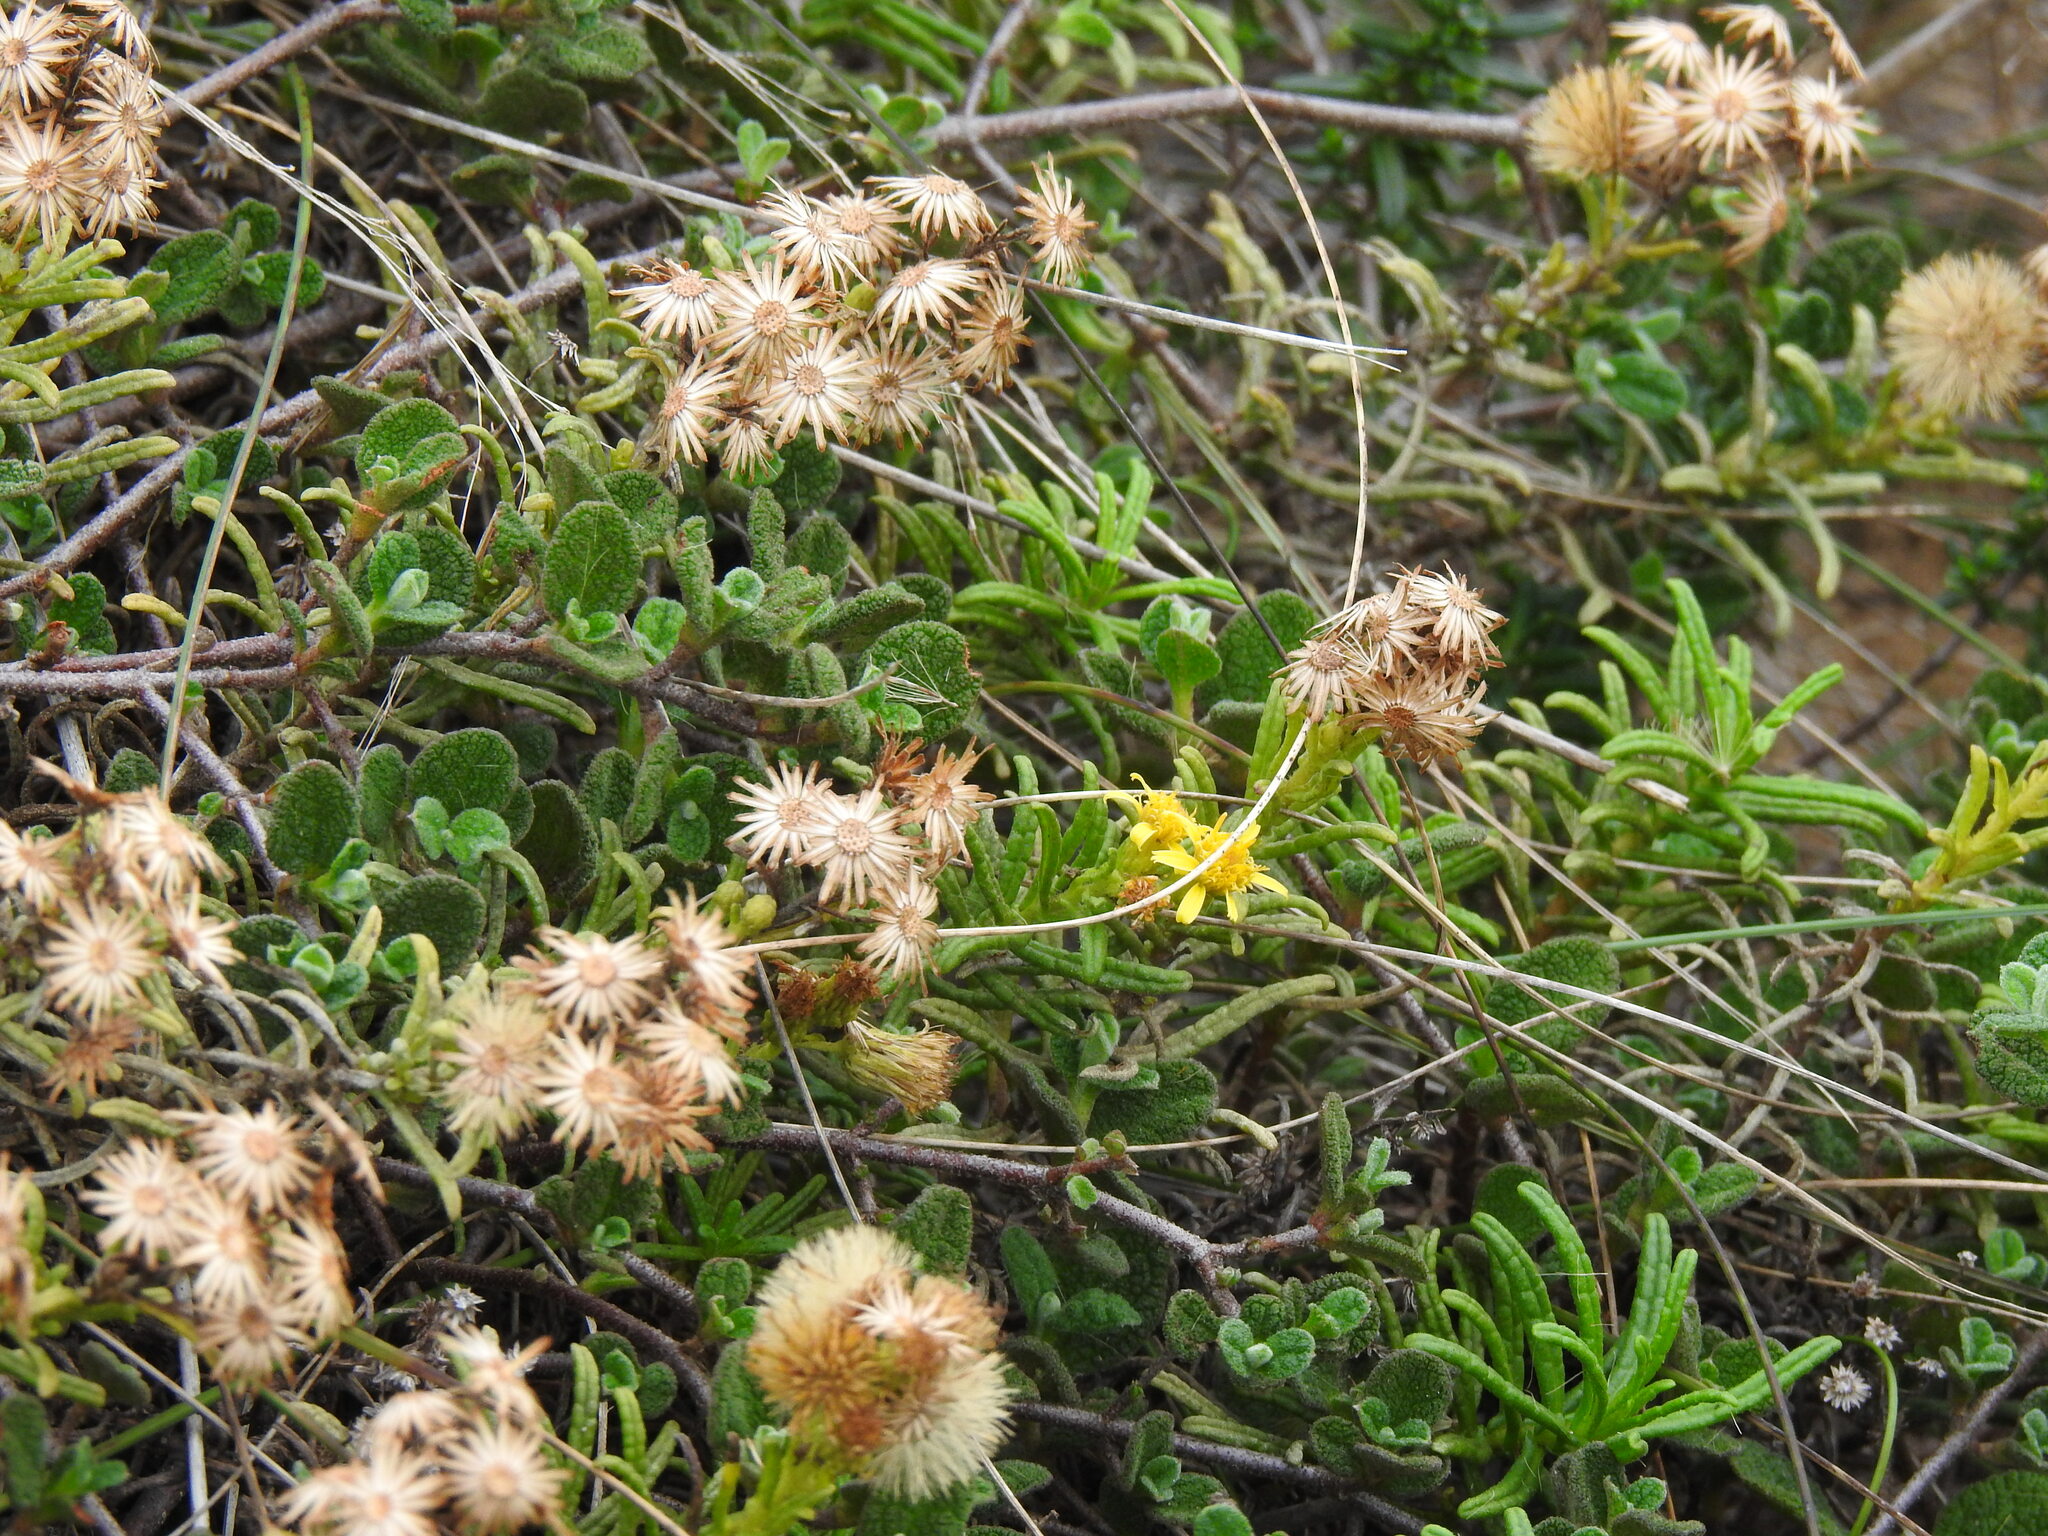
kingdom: Plantae
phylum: Tracheophyta
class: Magnoliopsida
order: Asterales
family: Asteraceae
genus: Dittrichia
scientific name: Dittrichia viscosa
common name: Woody fleabane
